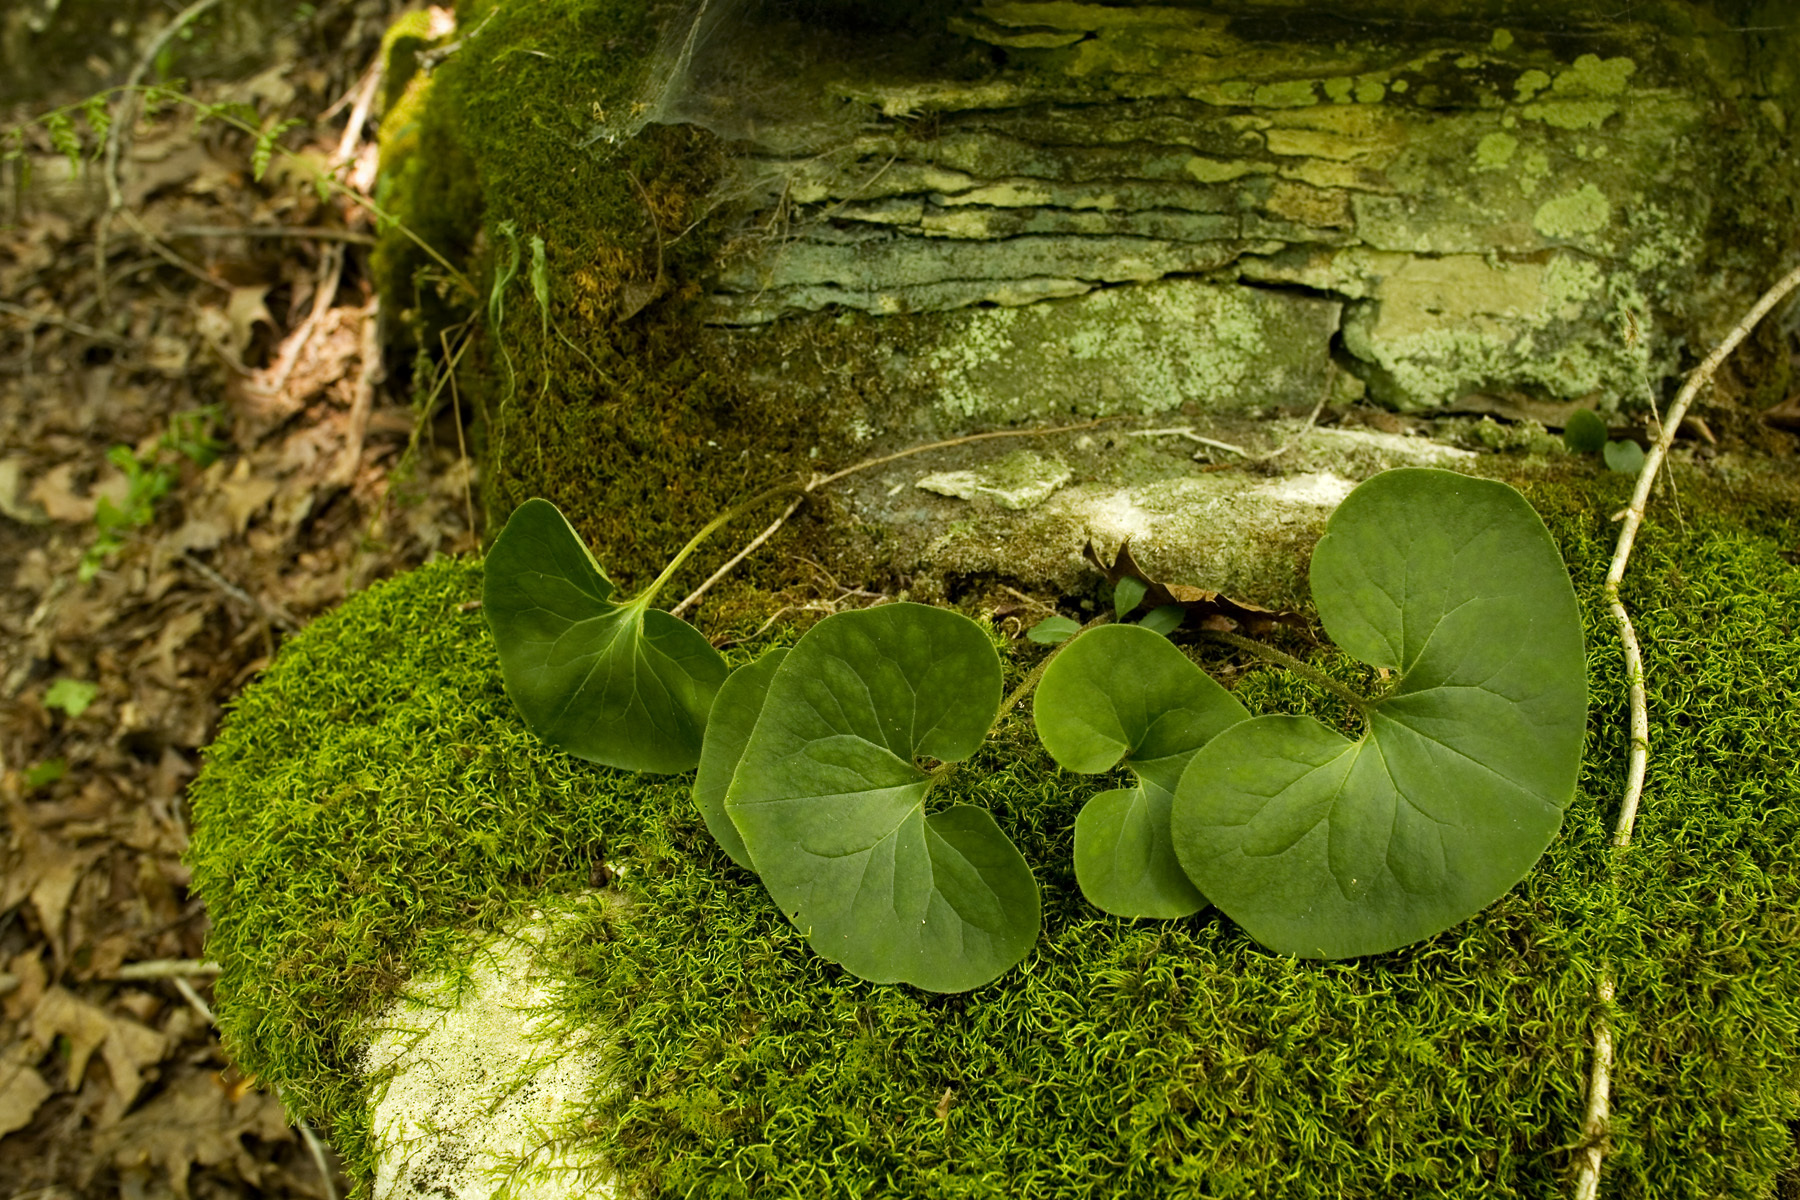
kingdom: Plantae
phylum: Tracheophyta
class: Magnoliopsida
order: Piperales
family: Aristolochiaceae
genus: Asarum
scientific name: Asarum canadense
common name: Wild ginger
